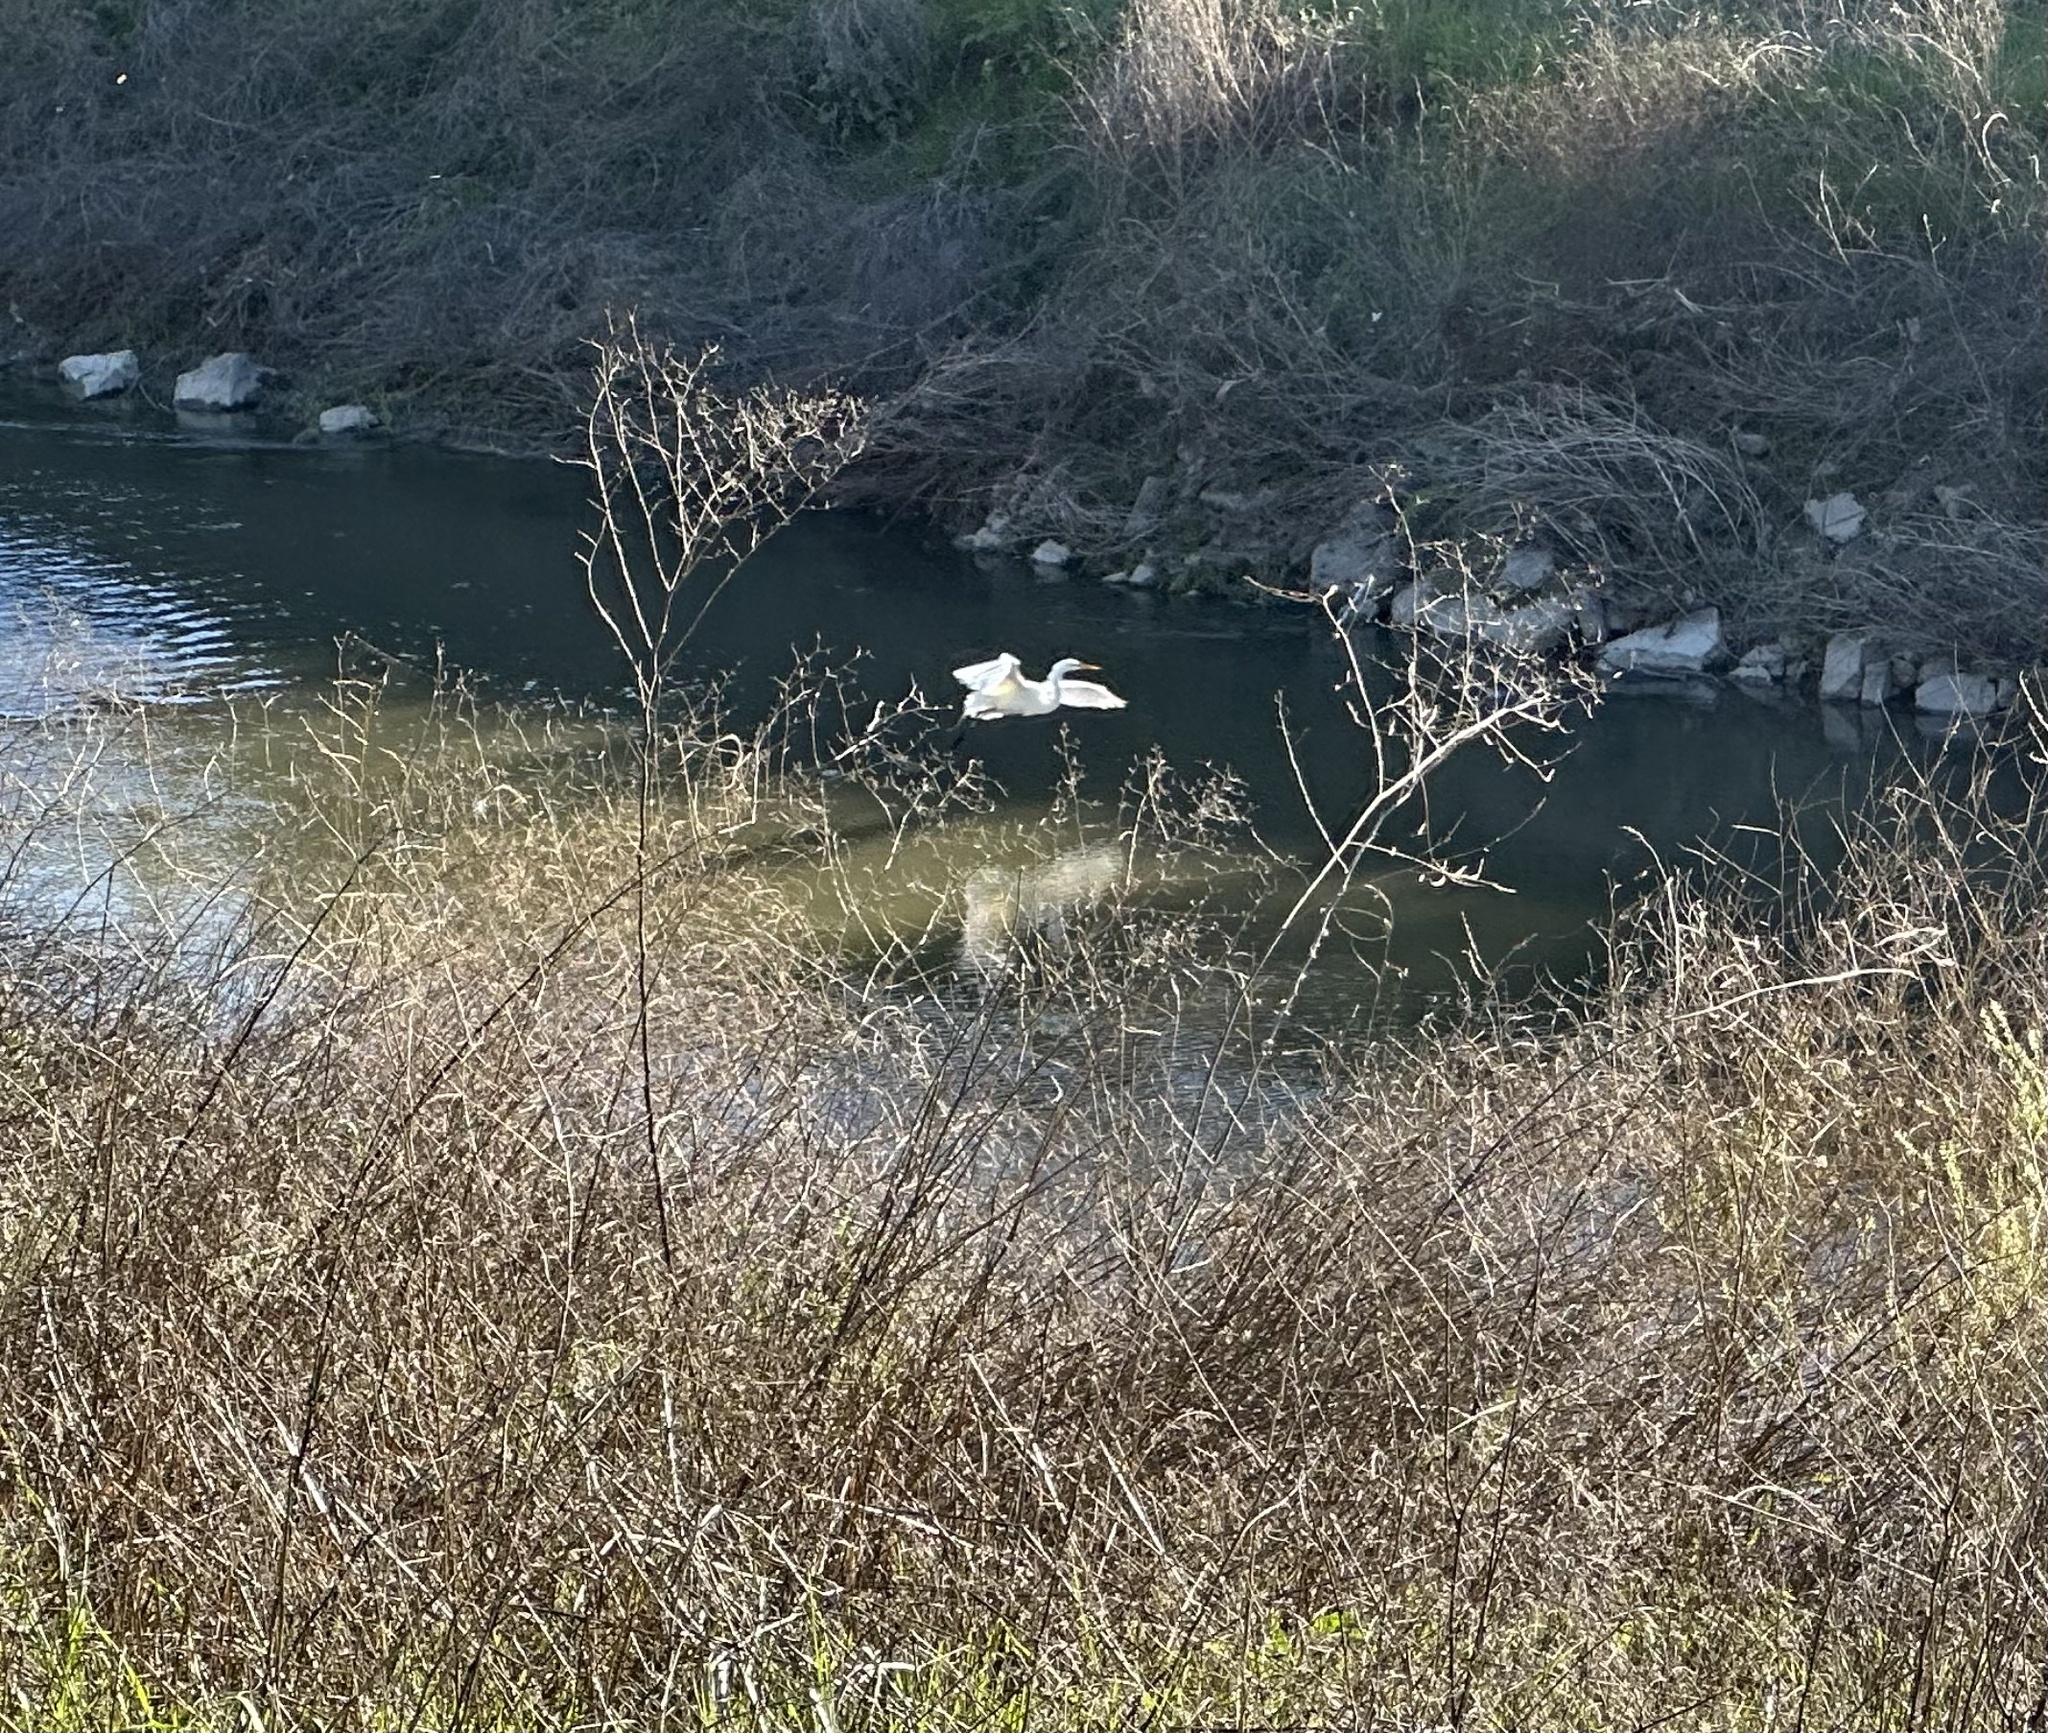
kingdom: Animalia
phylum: Chordata
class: Aves
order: Pelecaniformes
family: Ardeidae
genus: Ardea
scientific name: Ardea alba
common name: Great egret
